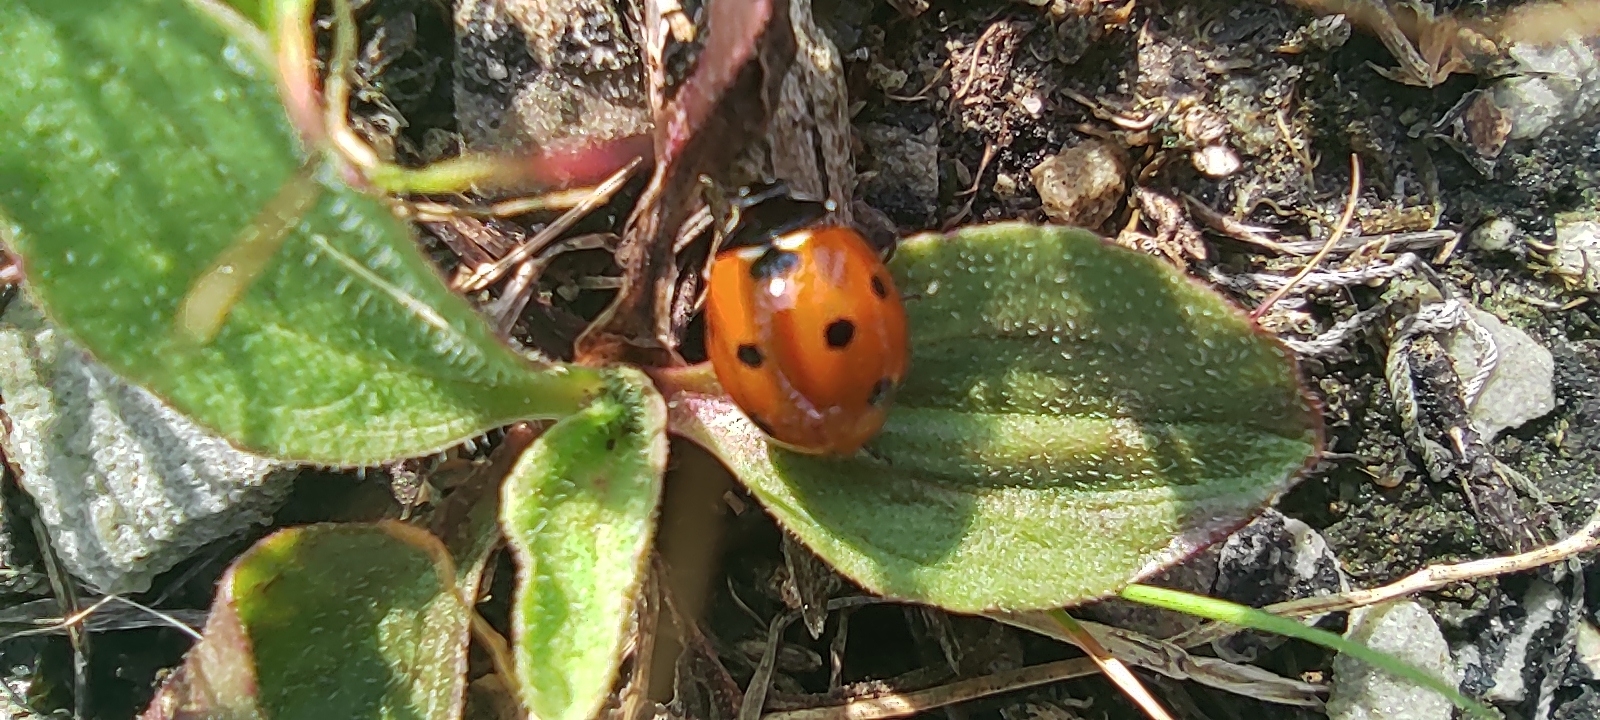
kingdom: Animalia
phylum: Arthropoda
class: Insecta
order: Coleoptera
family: Coccinellidae
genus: Coccinella
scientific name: Coccinella septempunctata
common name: Sevenspotted lady beetle
